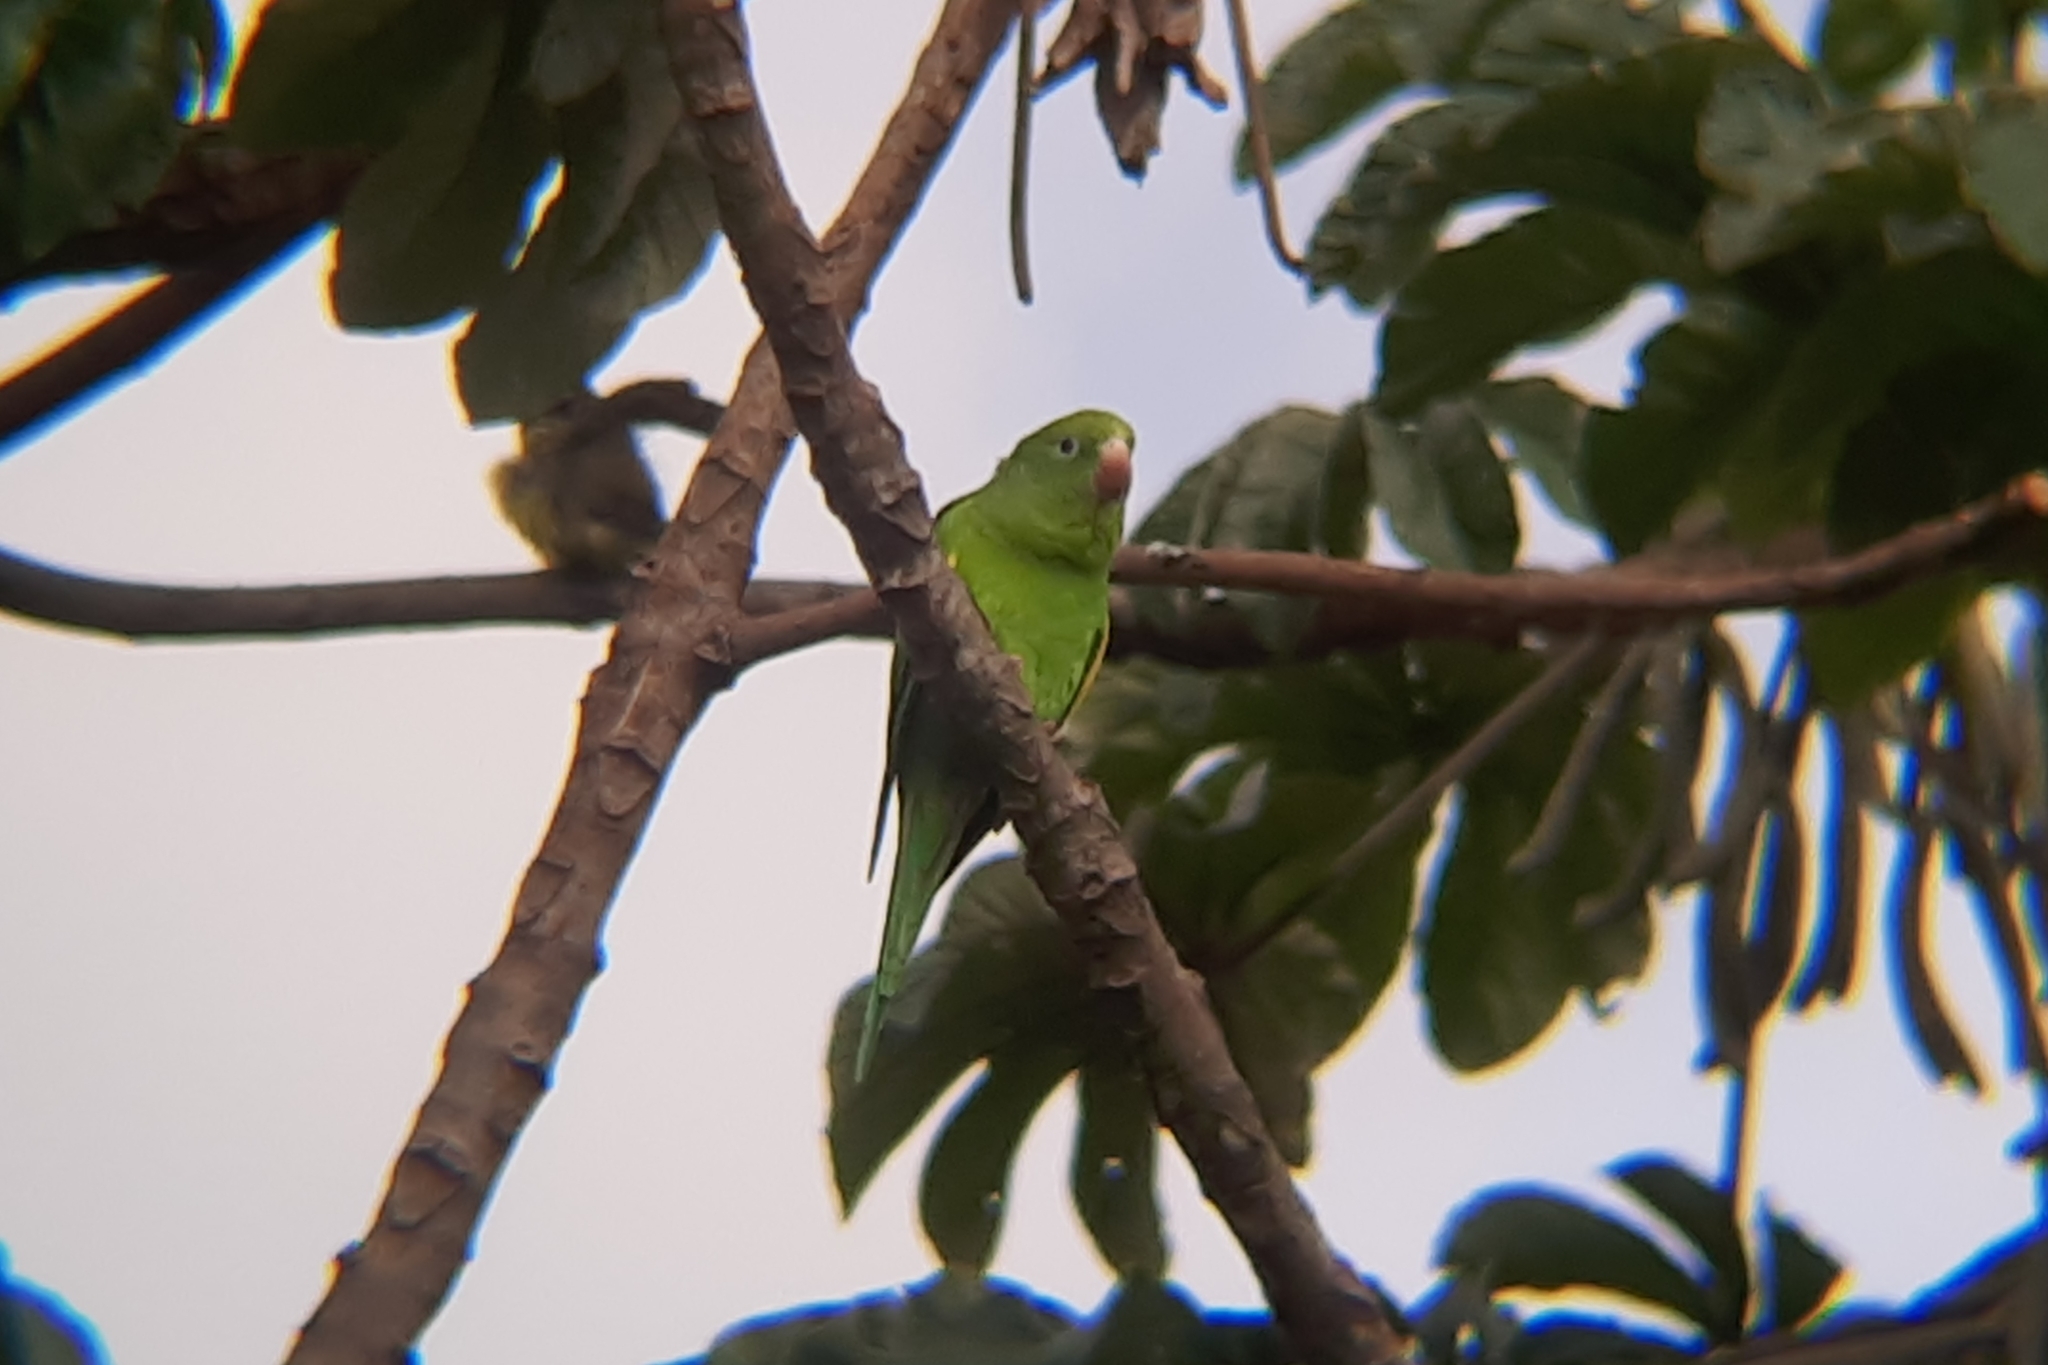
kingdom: Animalia
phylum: Chordata
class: Aves
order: Psittaciformes
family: Psittacidae
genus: Brotogeris
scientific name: Brotogeris chiriri
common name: Yellow-chevroned parakeet
